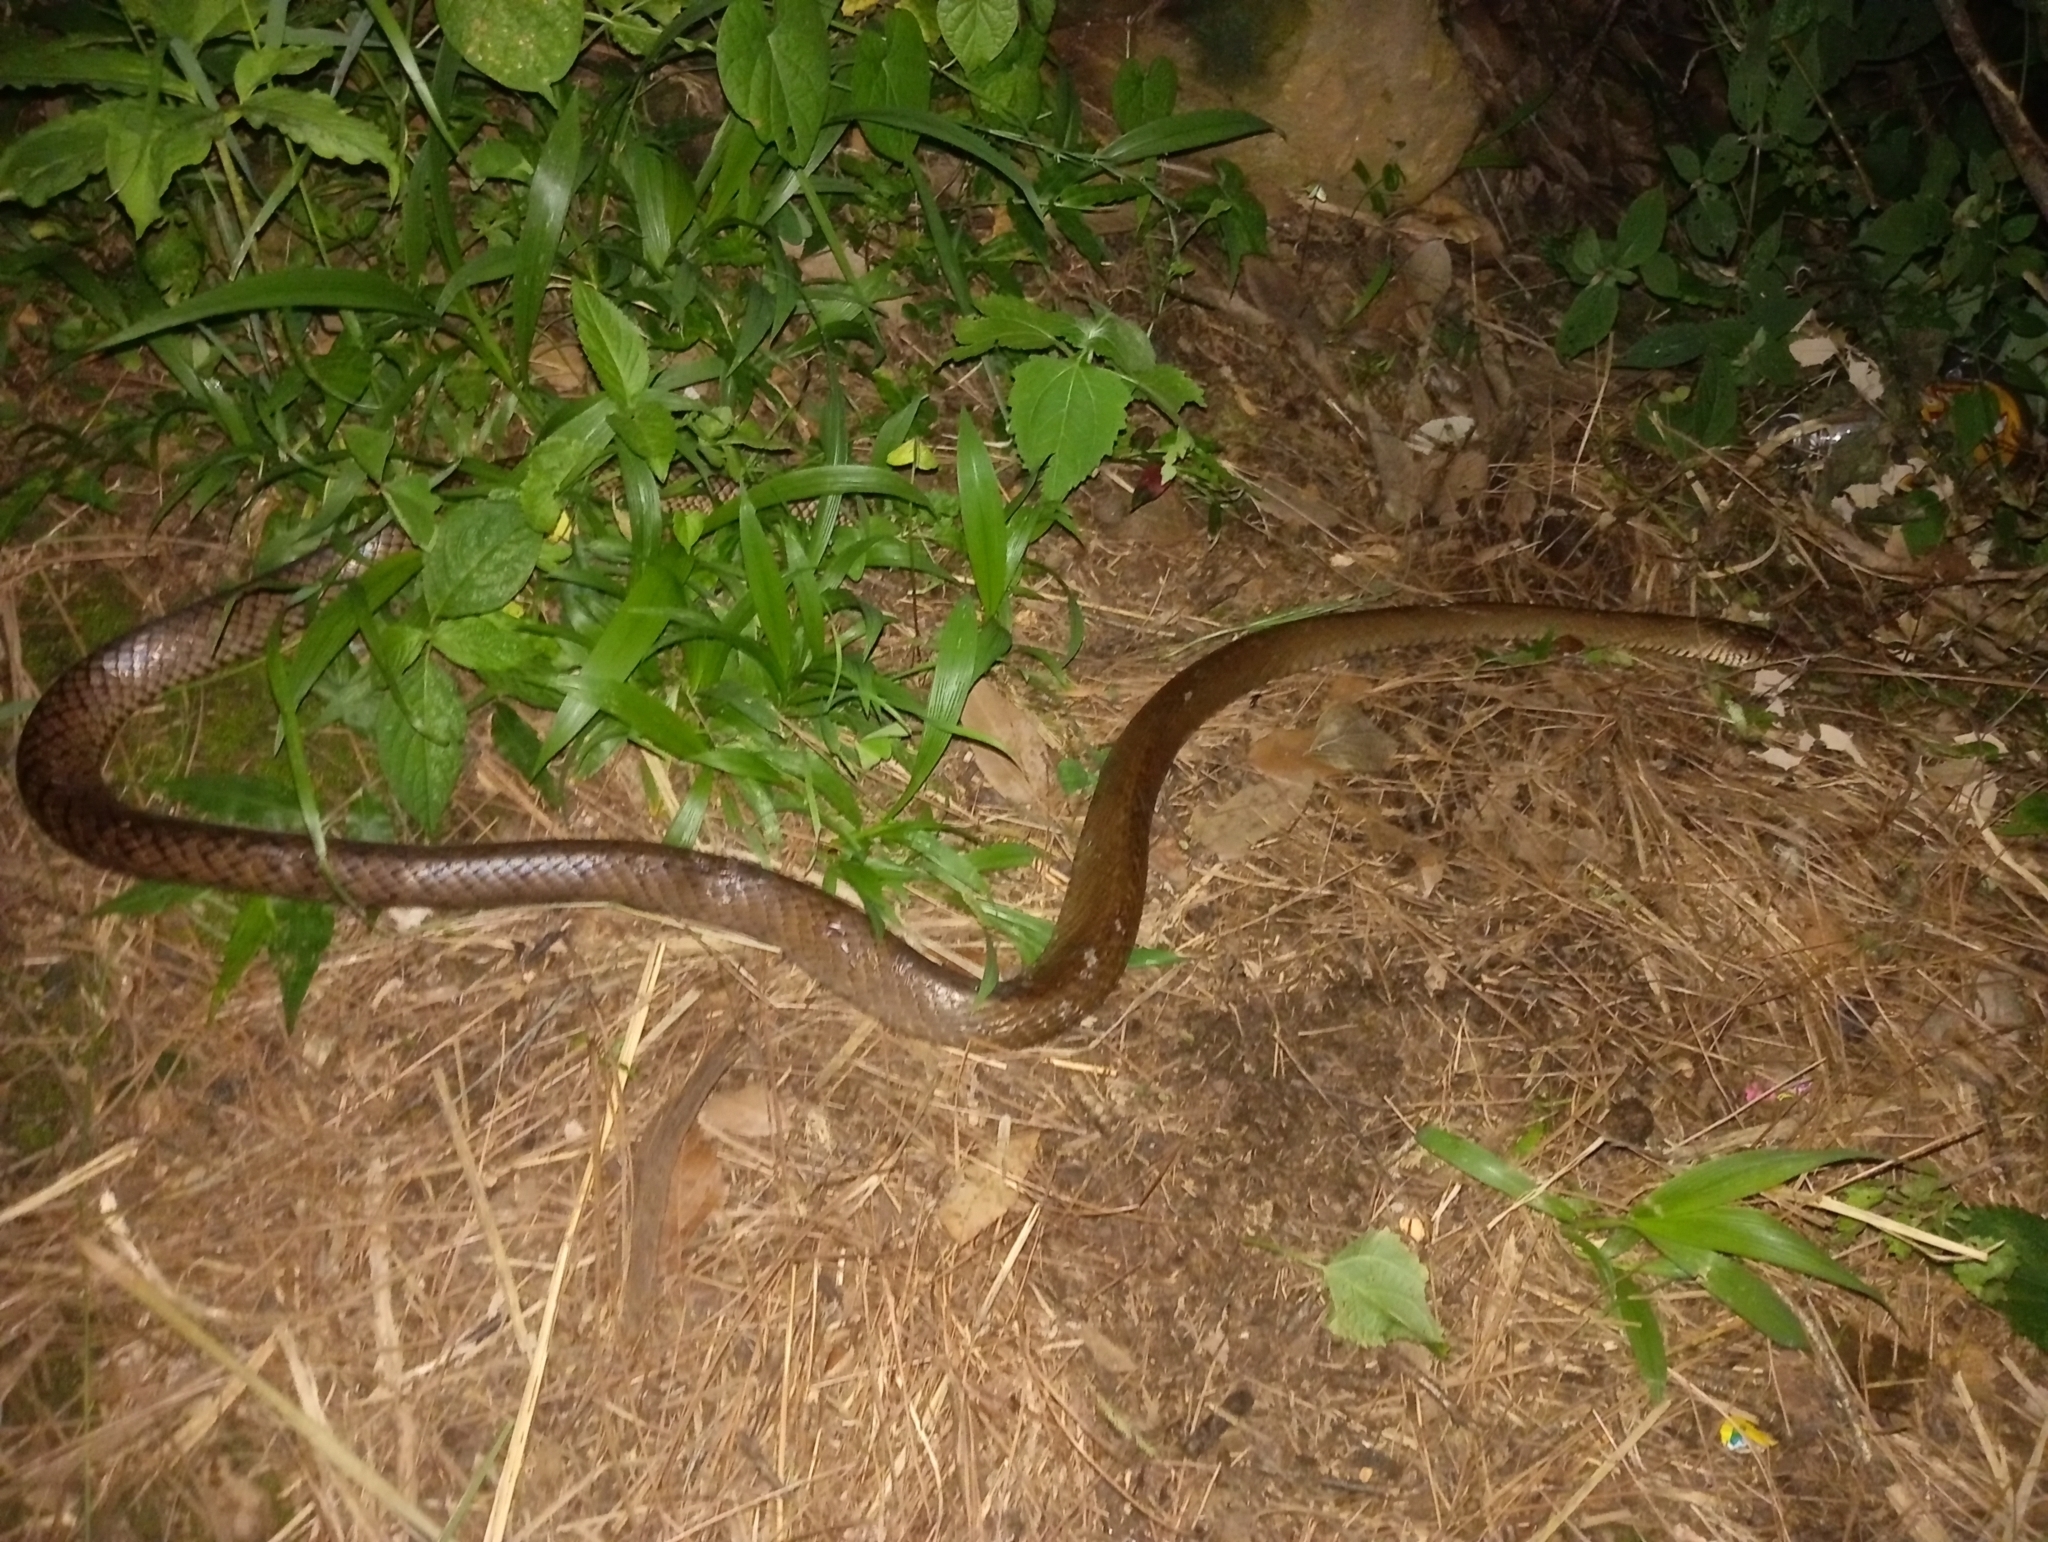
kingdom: Animalia
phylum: Chordata
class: Squamata
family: Colubridae
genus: Ptyas
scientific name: Ptyas mucosa
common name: Oriental ratsnake
